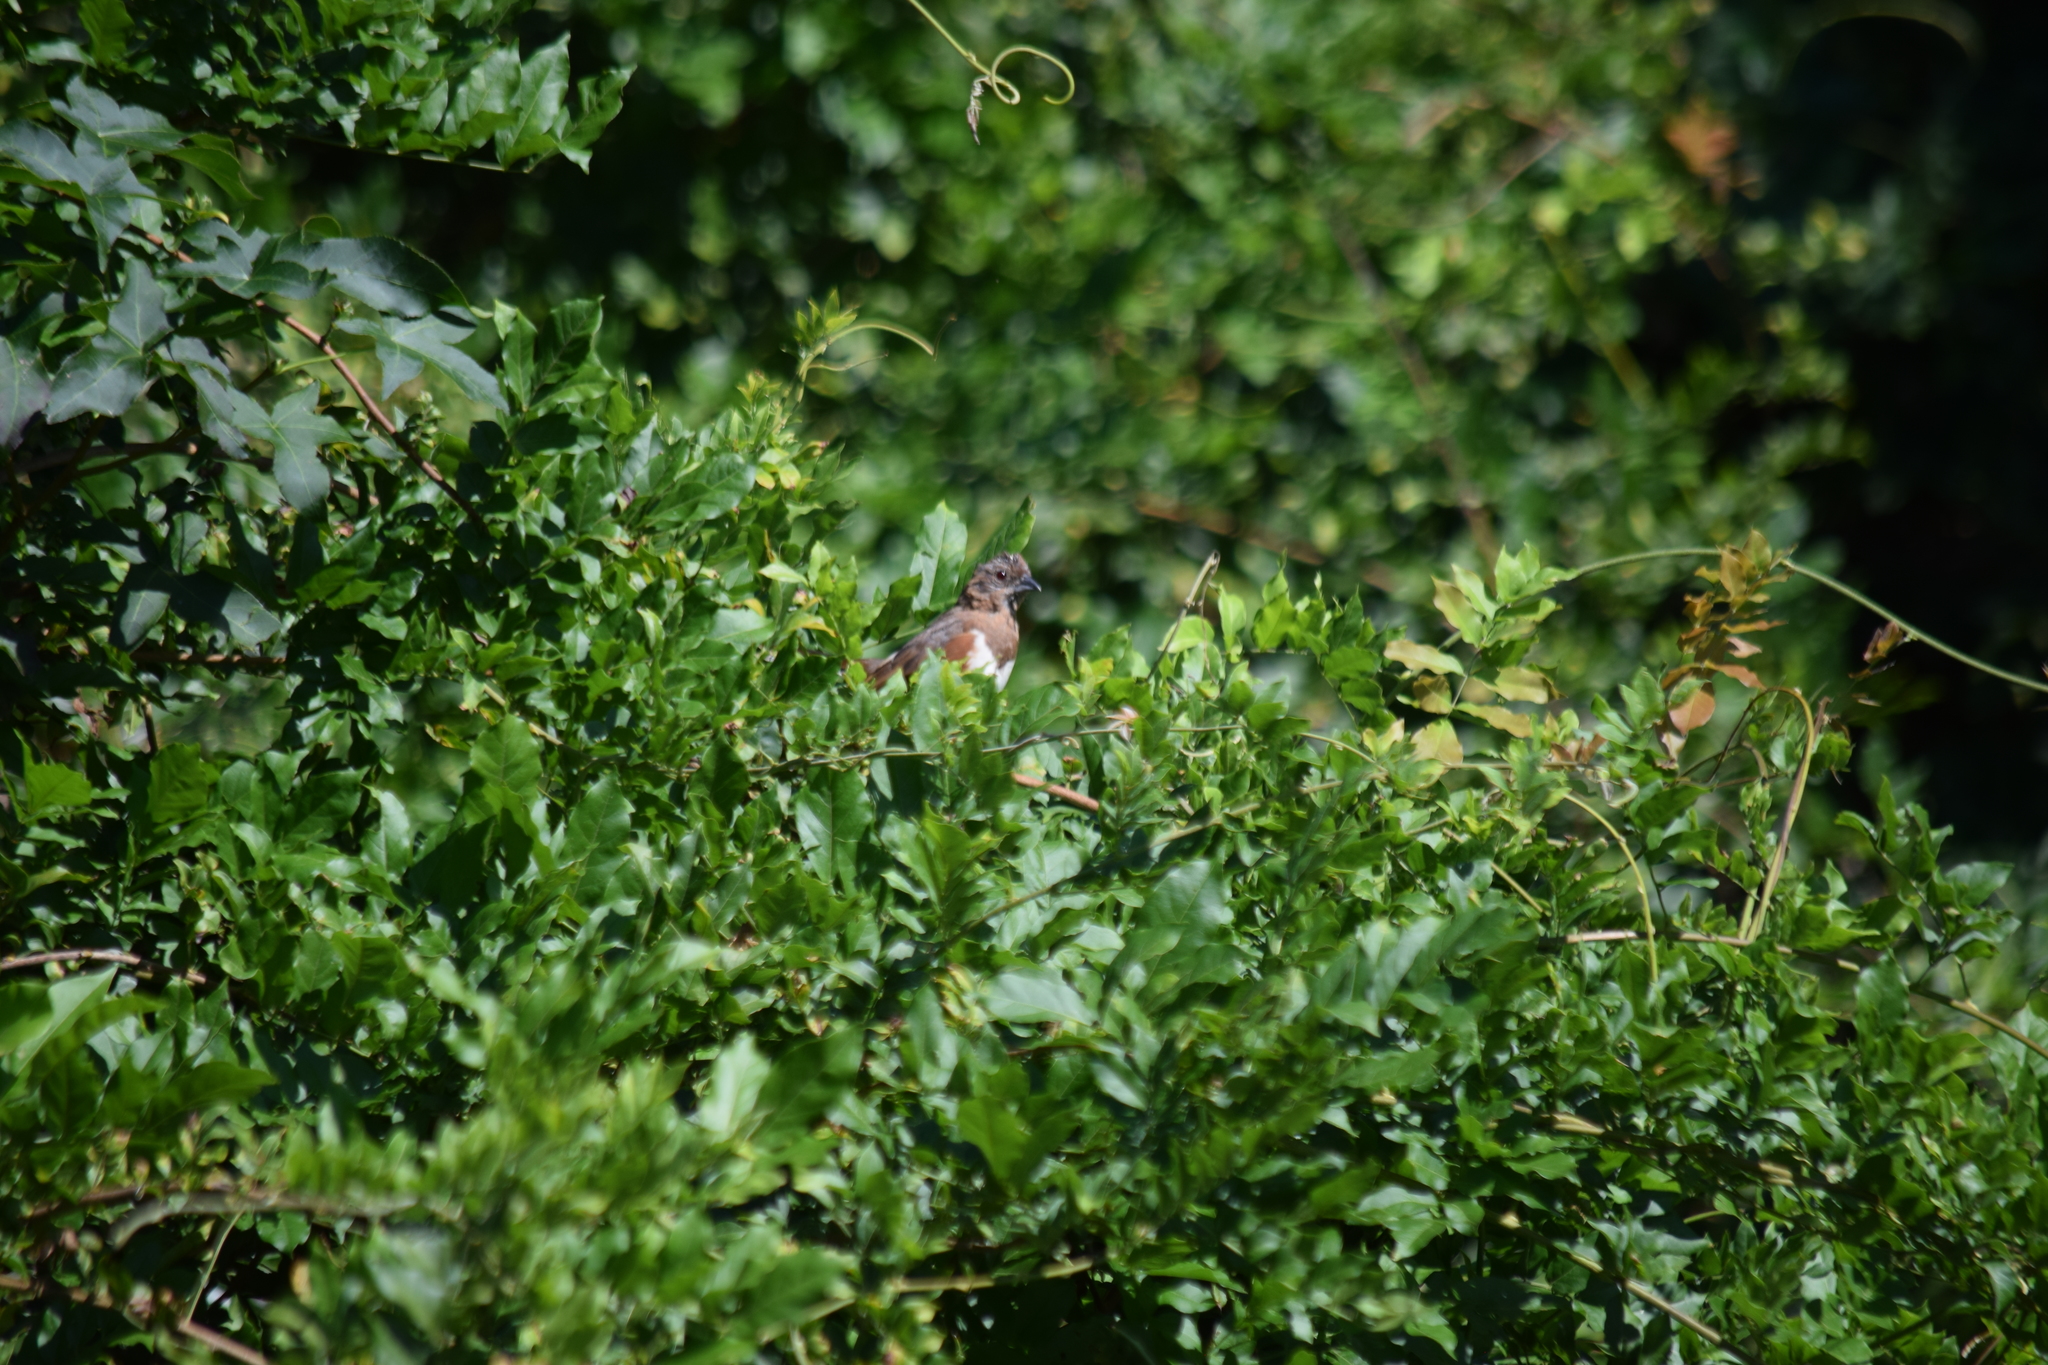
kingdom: Animalia
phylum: Chordata
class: Aves
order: Passeriformes
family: Passerellidae
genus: Pipilo
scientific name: Pipilo erythrophthalmus
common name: Eastern towhee
